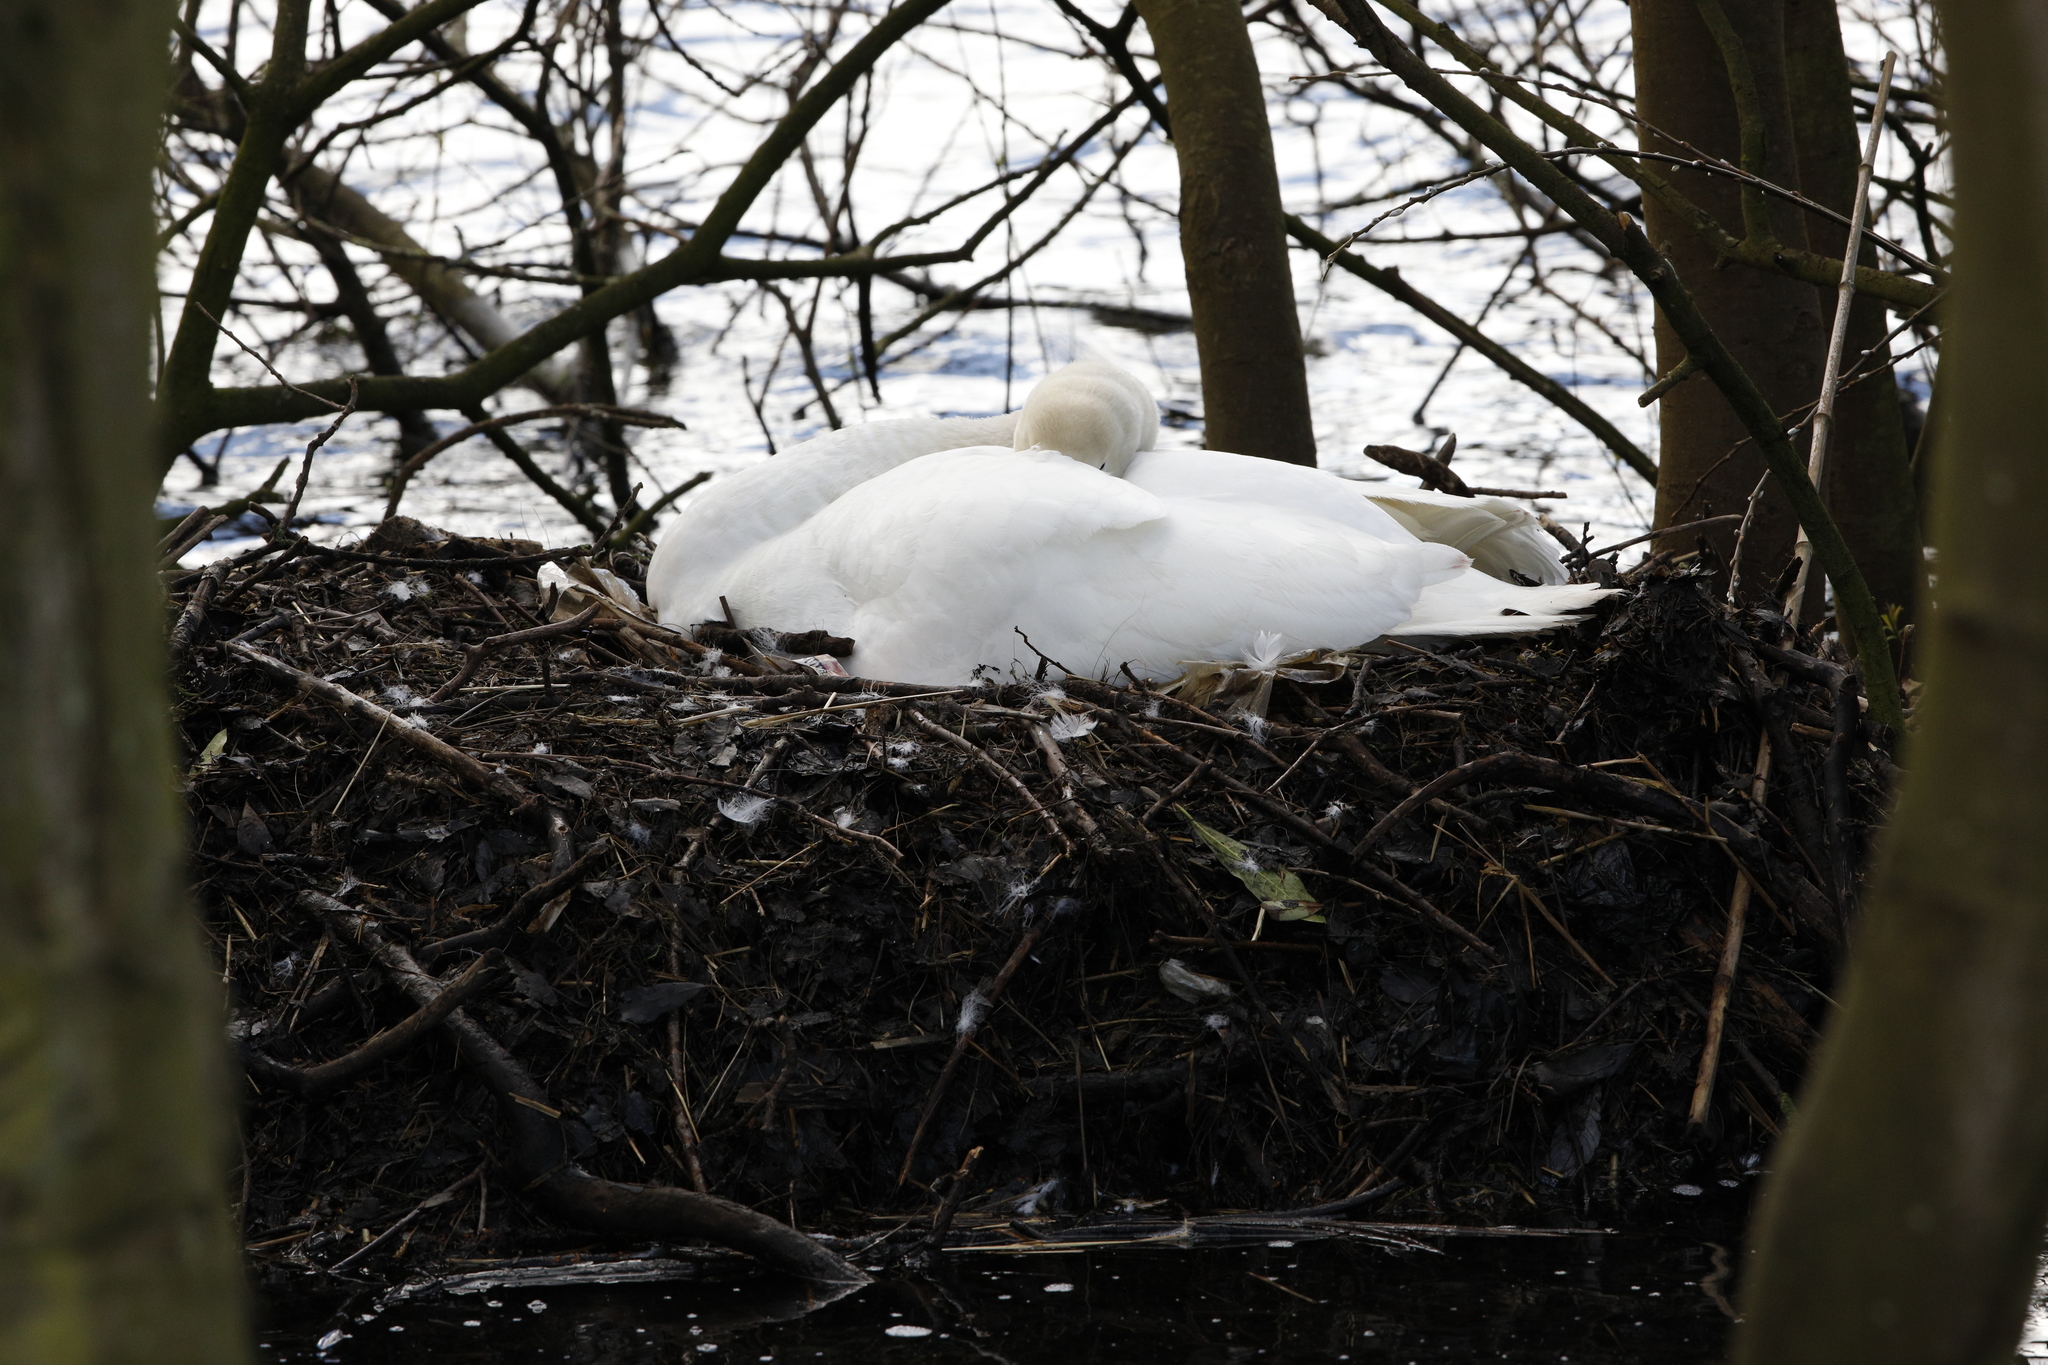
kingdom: Animalia
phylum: Chordata
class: Aves
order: Anseriformes
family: Anatidae
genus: Cygnus
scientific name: Cygnus olor
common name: Mute swan
